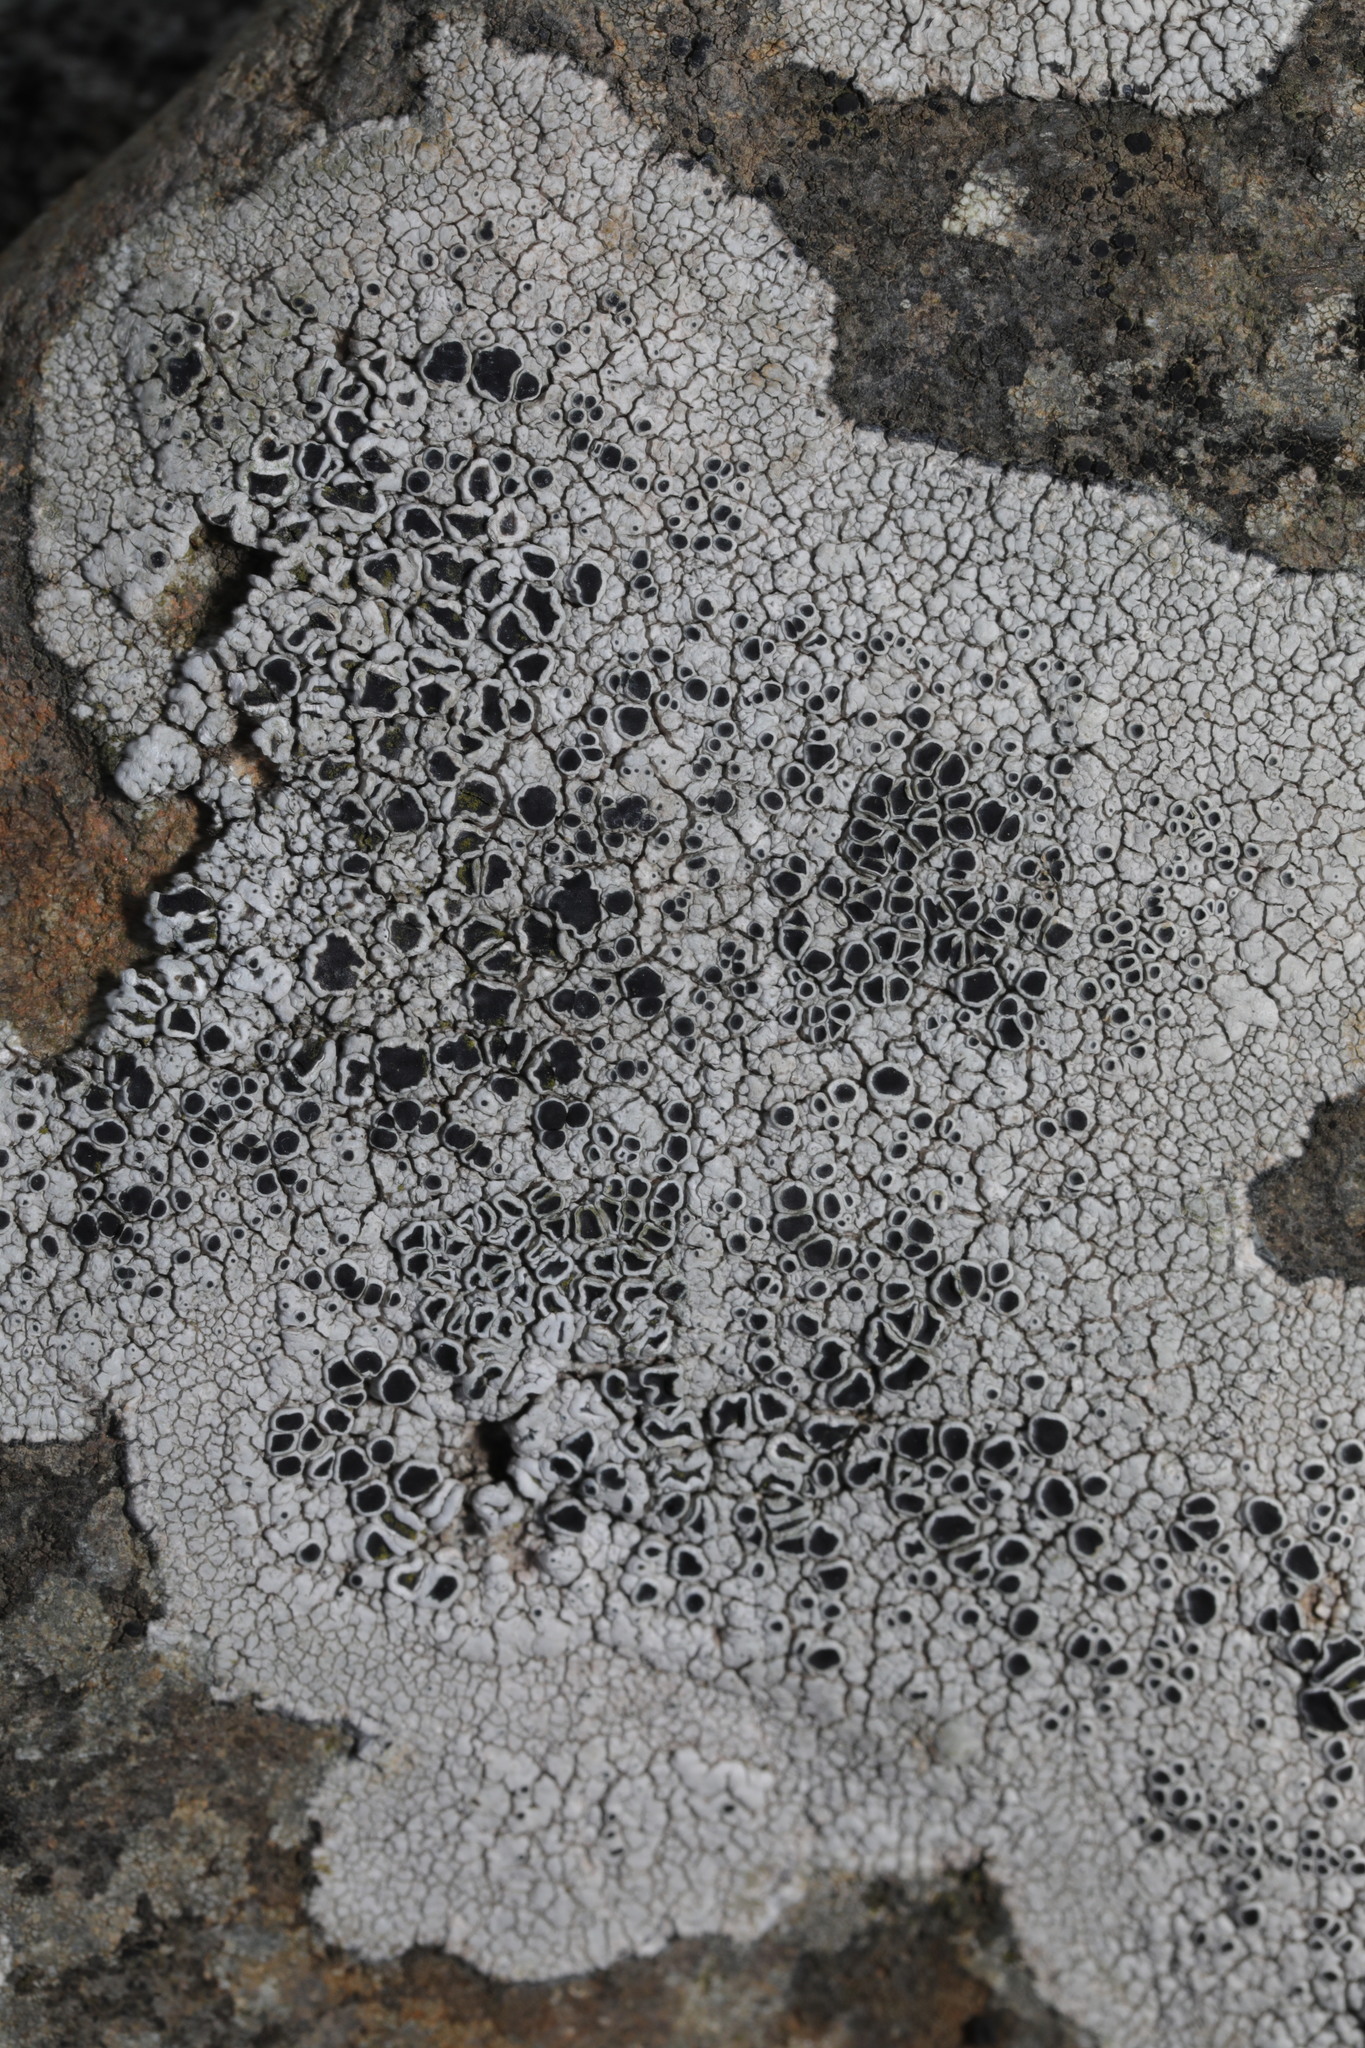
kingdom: Fungi
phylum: Ascomycota
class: Lecanoromycetes
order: Lecanorales
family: Tephromelataceae
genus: Tephromela
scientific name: Tephromela atra
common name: Black shields
